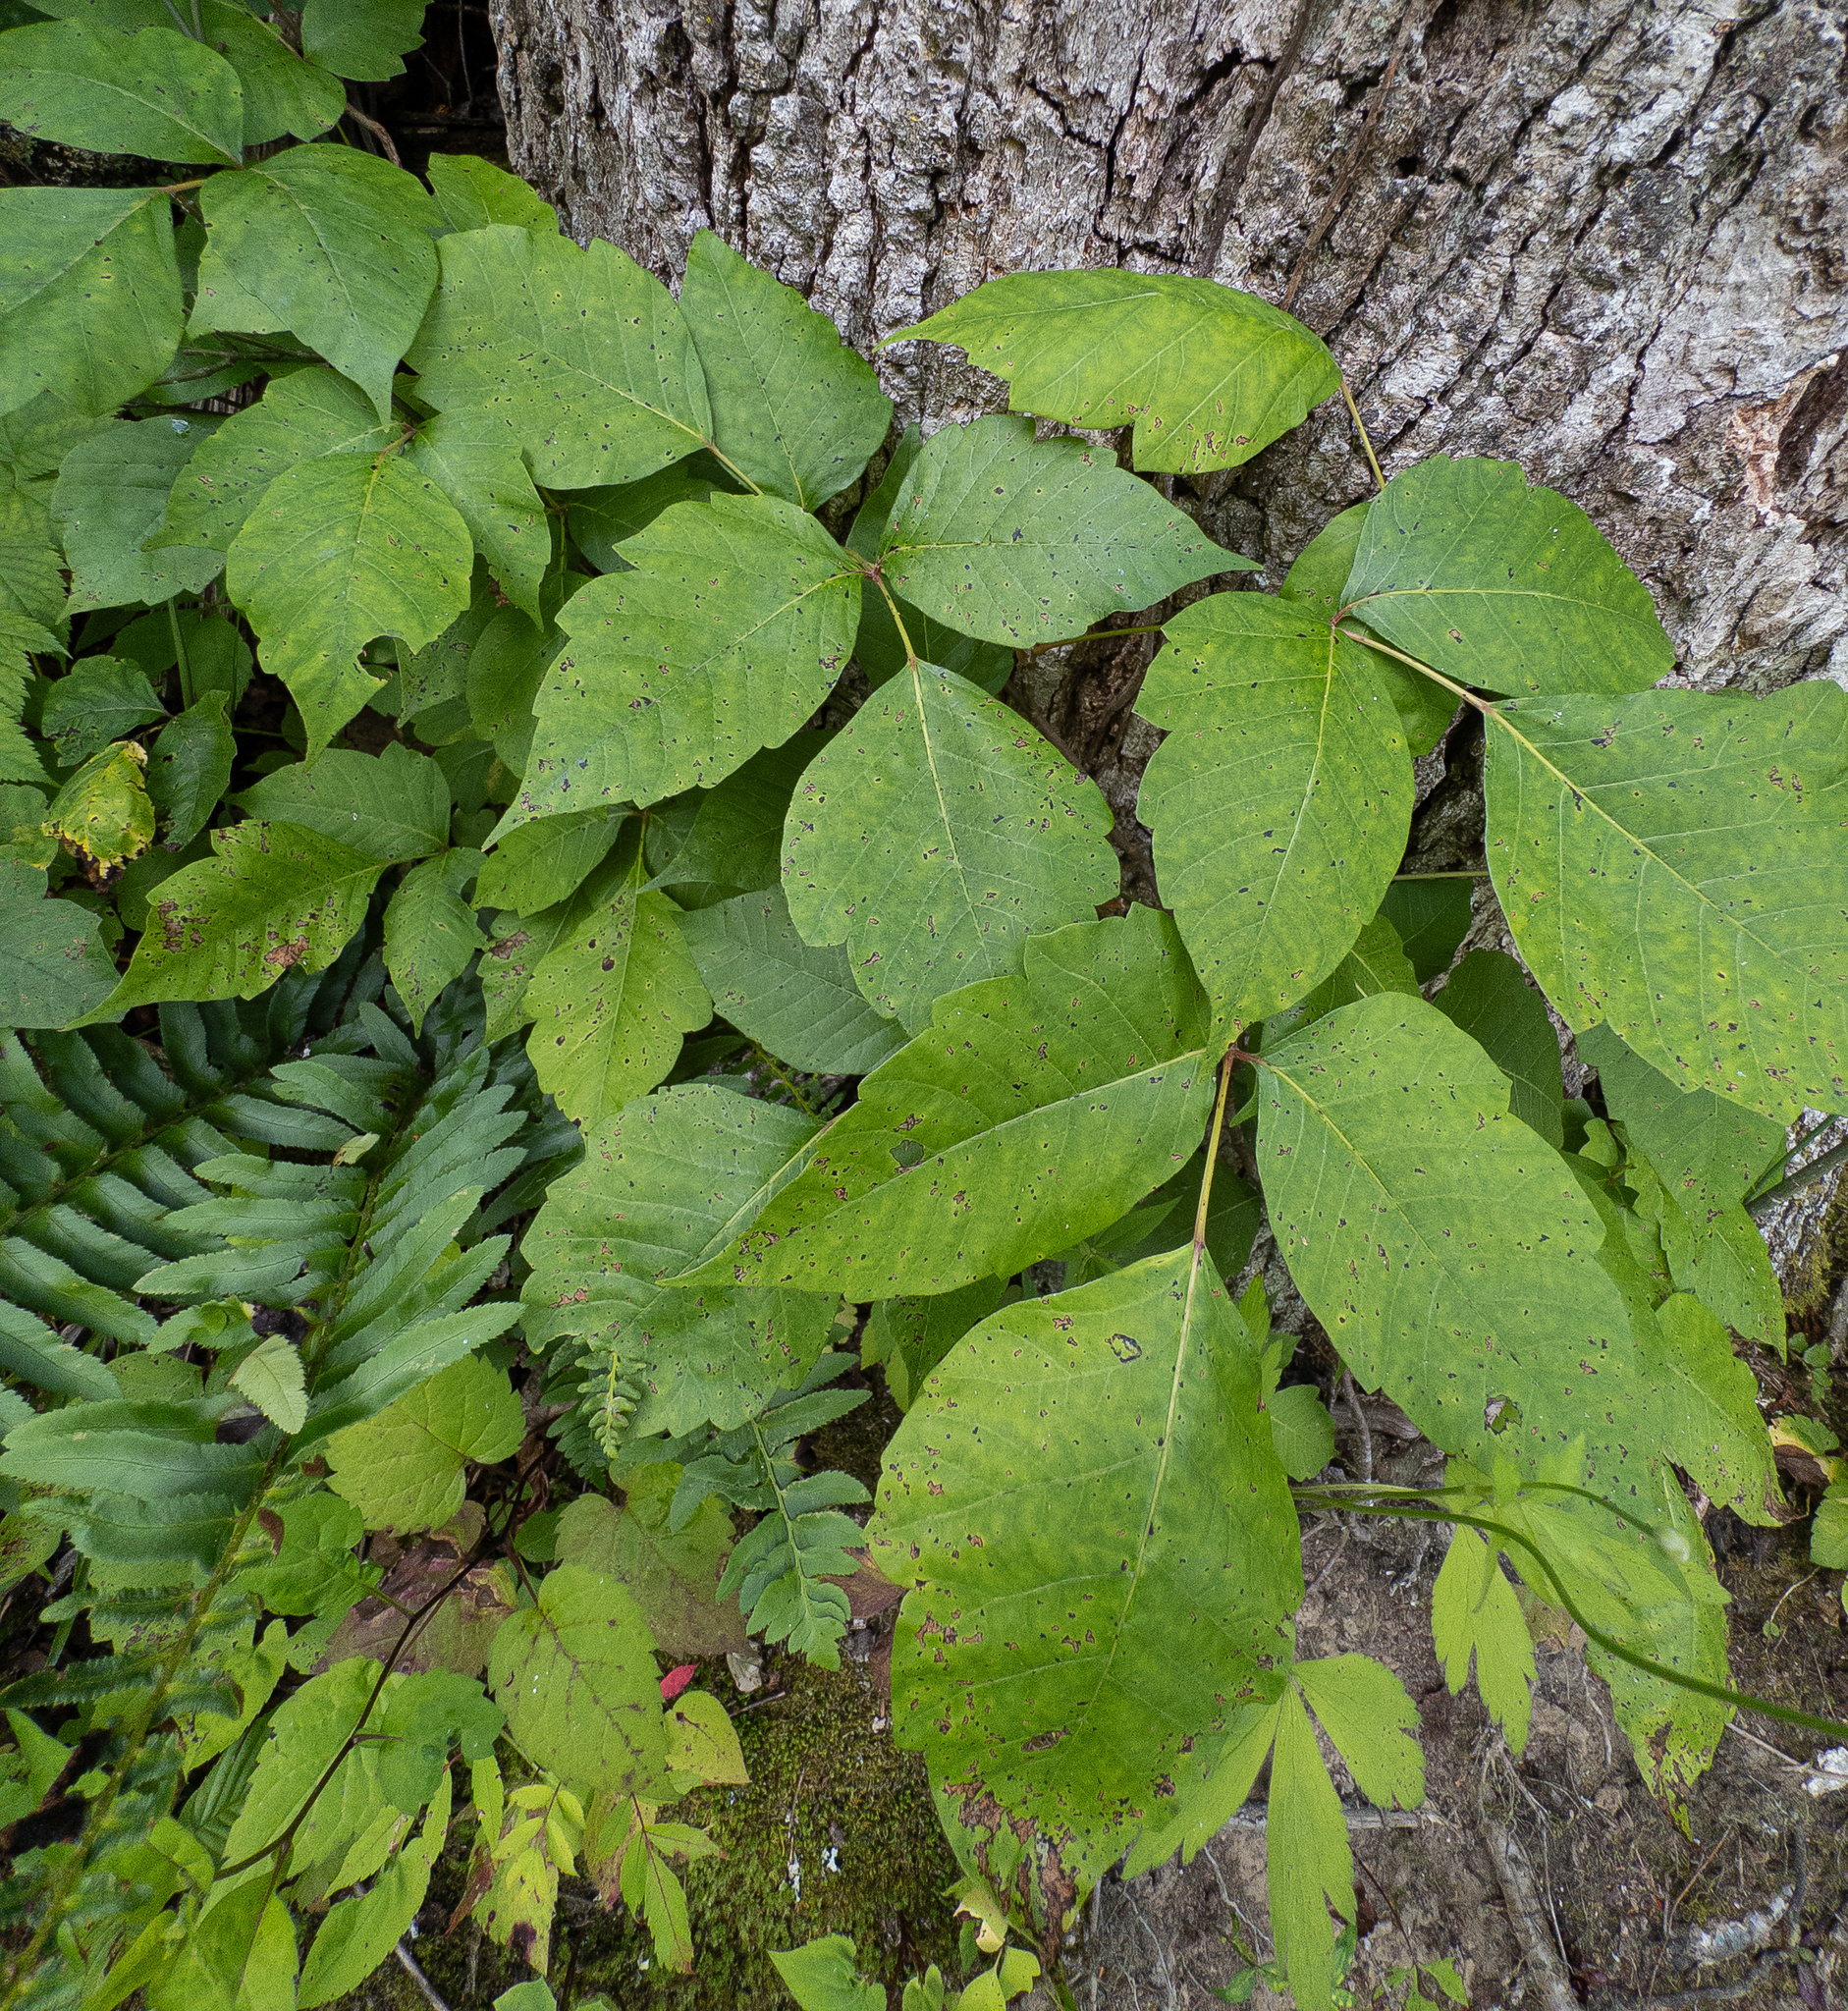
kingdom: Plantae
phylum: Tracheophyta
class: Magnoliopsida
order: Sapindales
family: Anacardiaceae
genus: Toxicodendron
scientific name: Toxicodendron radicans
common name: Poison ivy
